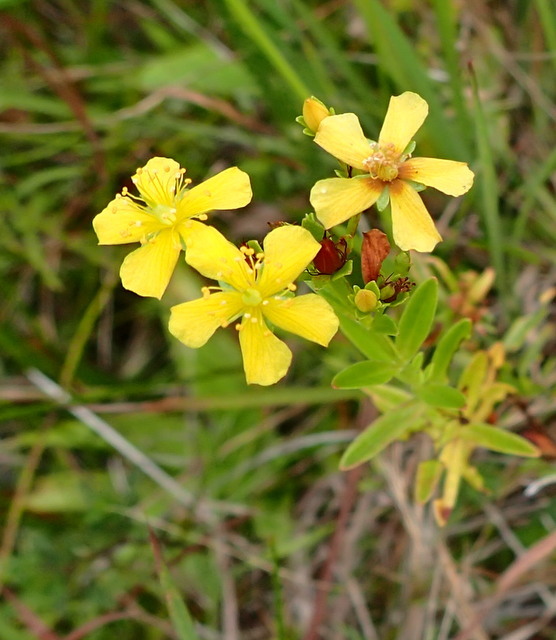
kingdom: Plantae
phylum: Tracheophyta
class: Magnoliopsida
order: Malpighiales
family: Hypericaceae
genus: Hypericum
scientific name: Hypericum cistifolium
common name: Round-pod st. john's-wort
